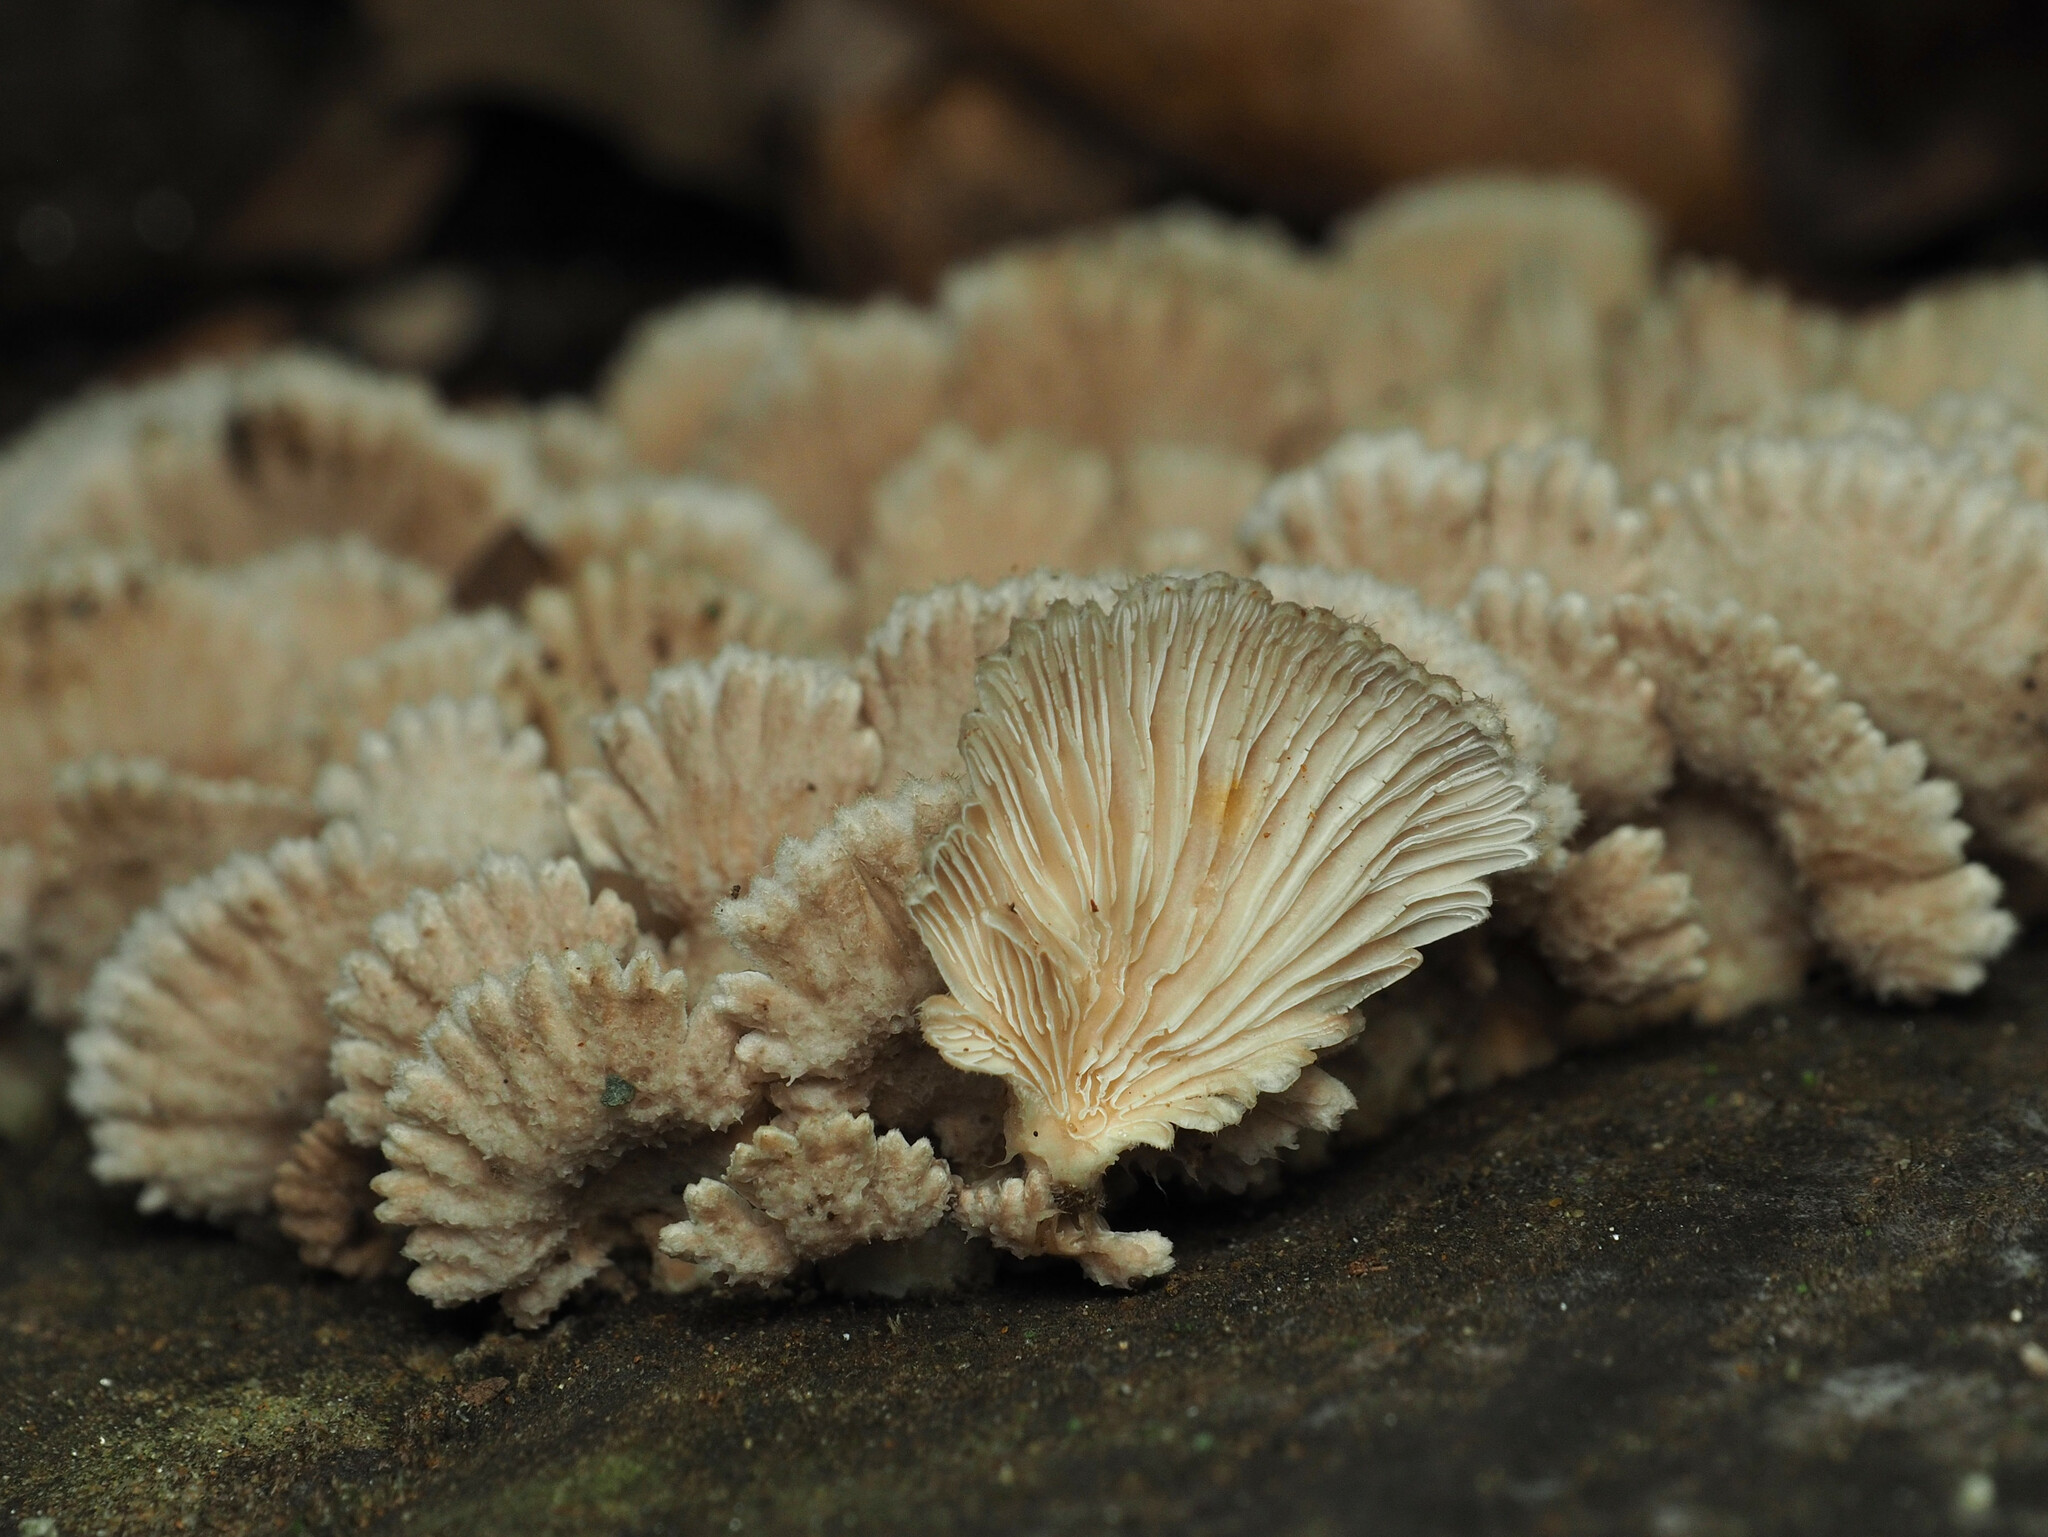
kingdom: Fungi
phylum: Basidiomycota
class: Agaricomycetes
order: Agaricales
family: Schizophyllaceae
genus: Schizophyllum
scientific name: Schizophyllum commune
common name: Common porecrust
